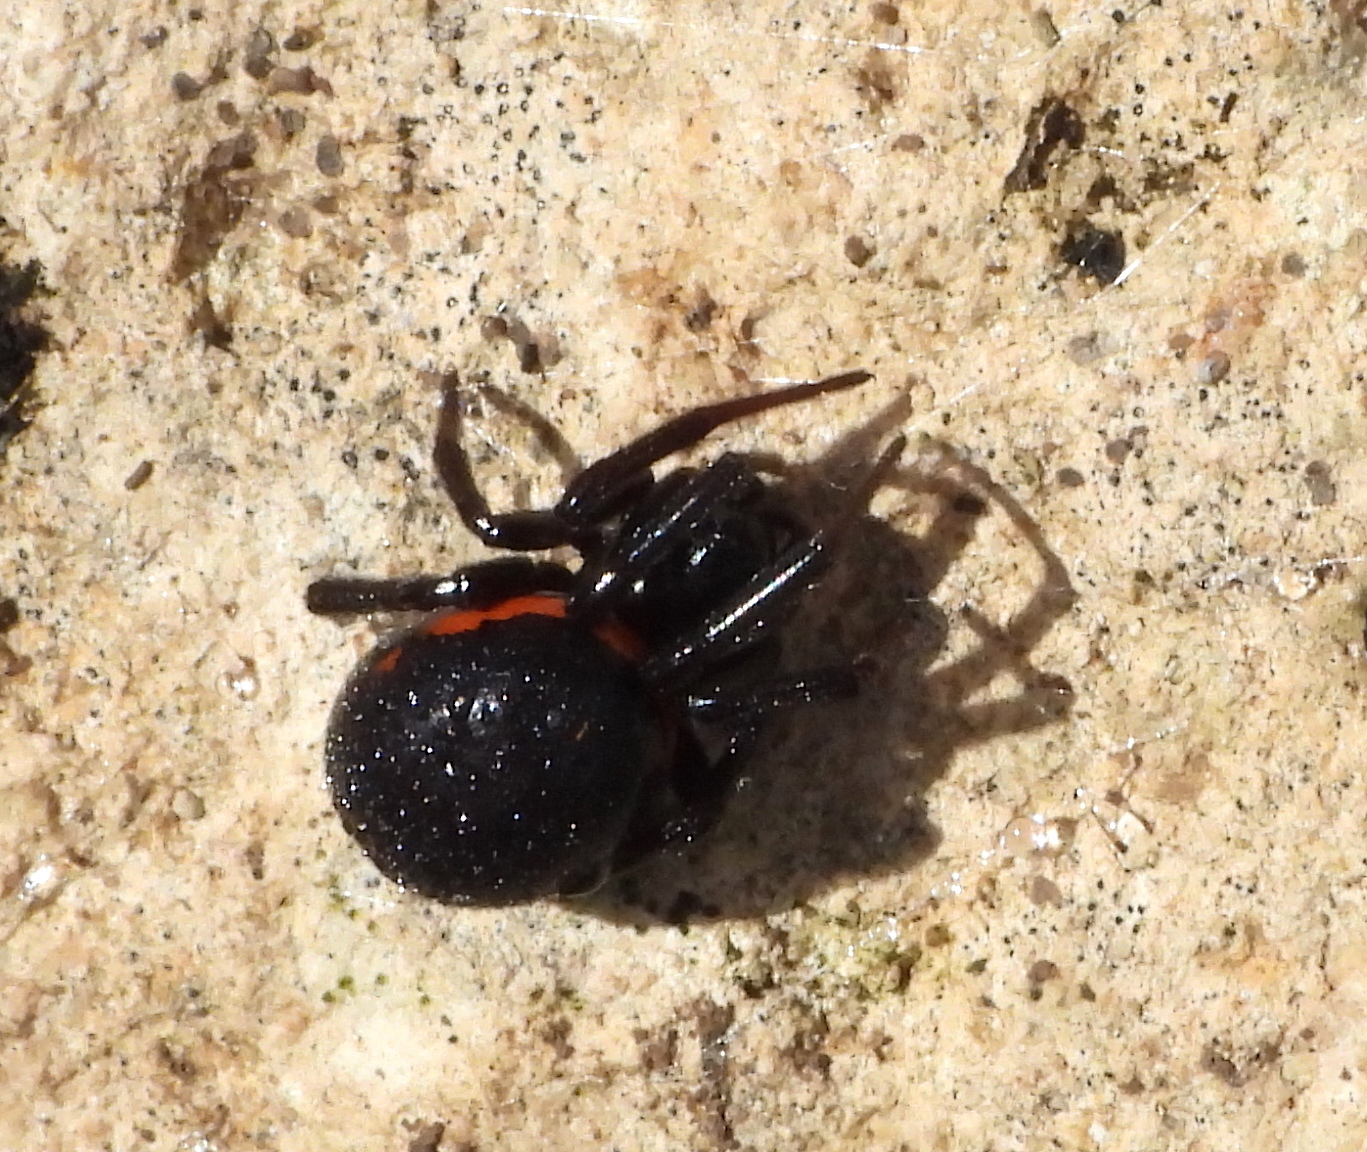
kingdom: Animalia
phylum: Arthropoda
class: Arachnida
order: Araneae
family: Theridiidae
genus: Steatoda
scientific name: Steatoda paykulliana
